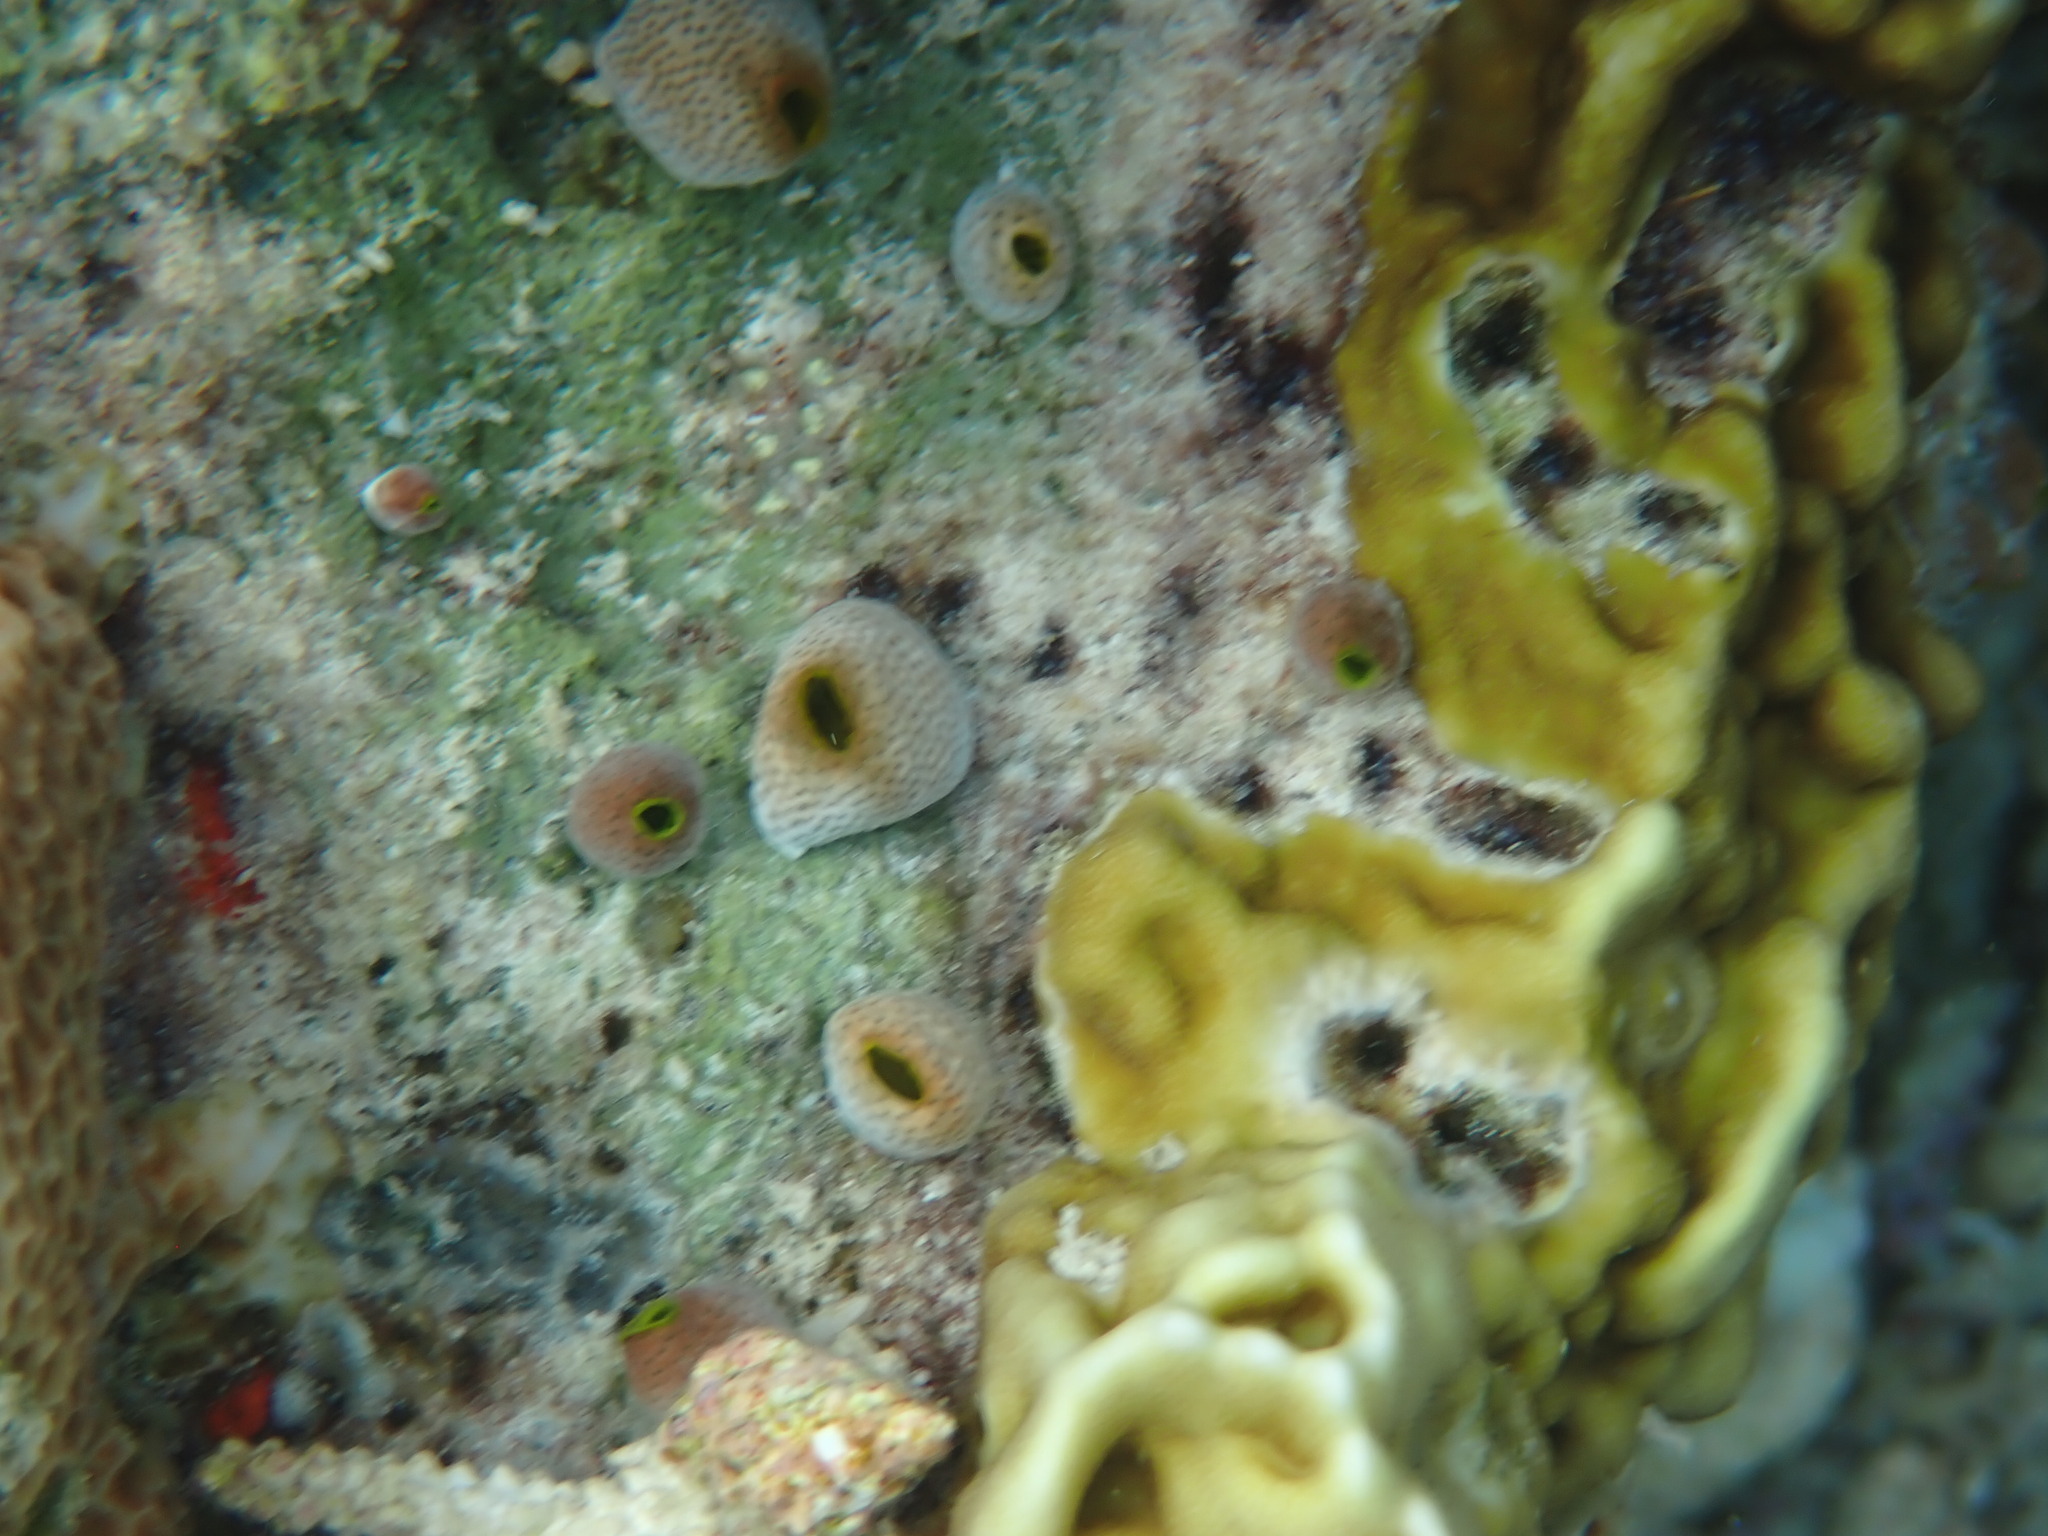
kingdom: Animalia
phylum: Chordata
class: Ascidiacea
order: Aplousobranchia
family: Didemnidae
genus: Didemnum
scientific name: Didemnum molle
